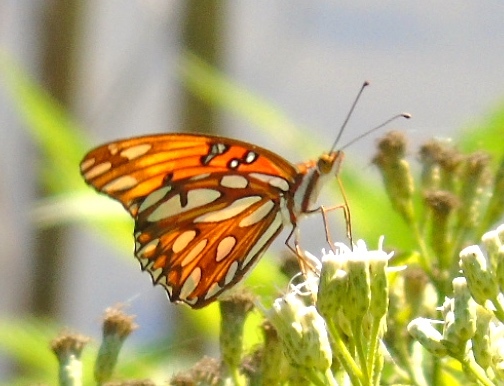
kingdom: Animalia
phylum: Arthropoda
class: Insecta
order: Lepidoptera
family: Nymphalidae
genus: Dione
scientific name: Dione vanillae
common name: Gulf fritillary
